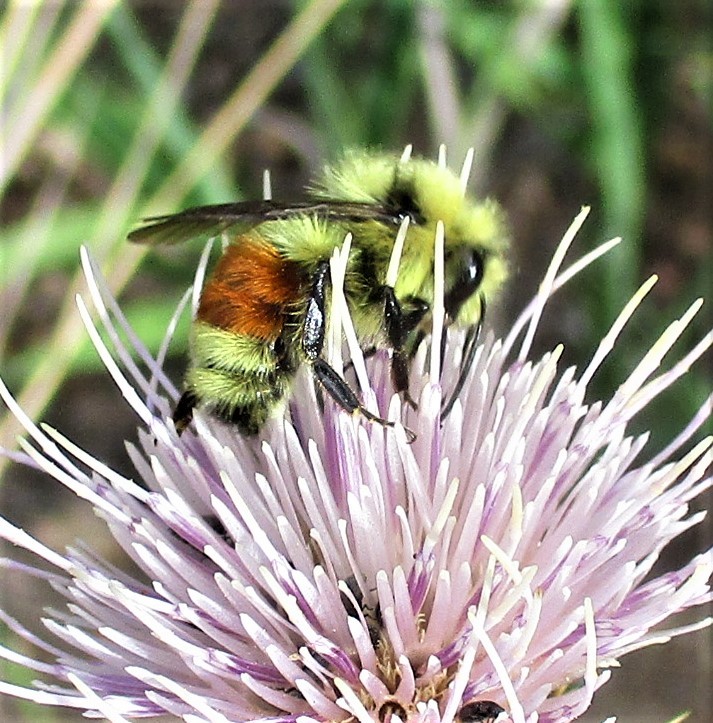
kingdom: Animalia
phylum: Arthropoda
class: Insecta
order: Hymenoptera
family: Apidae
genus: Bombus
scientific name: Bombus huntii
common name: Hunt bumble bee
